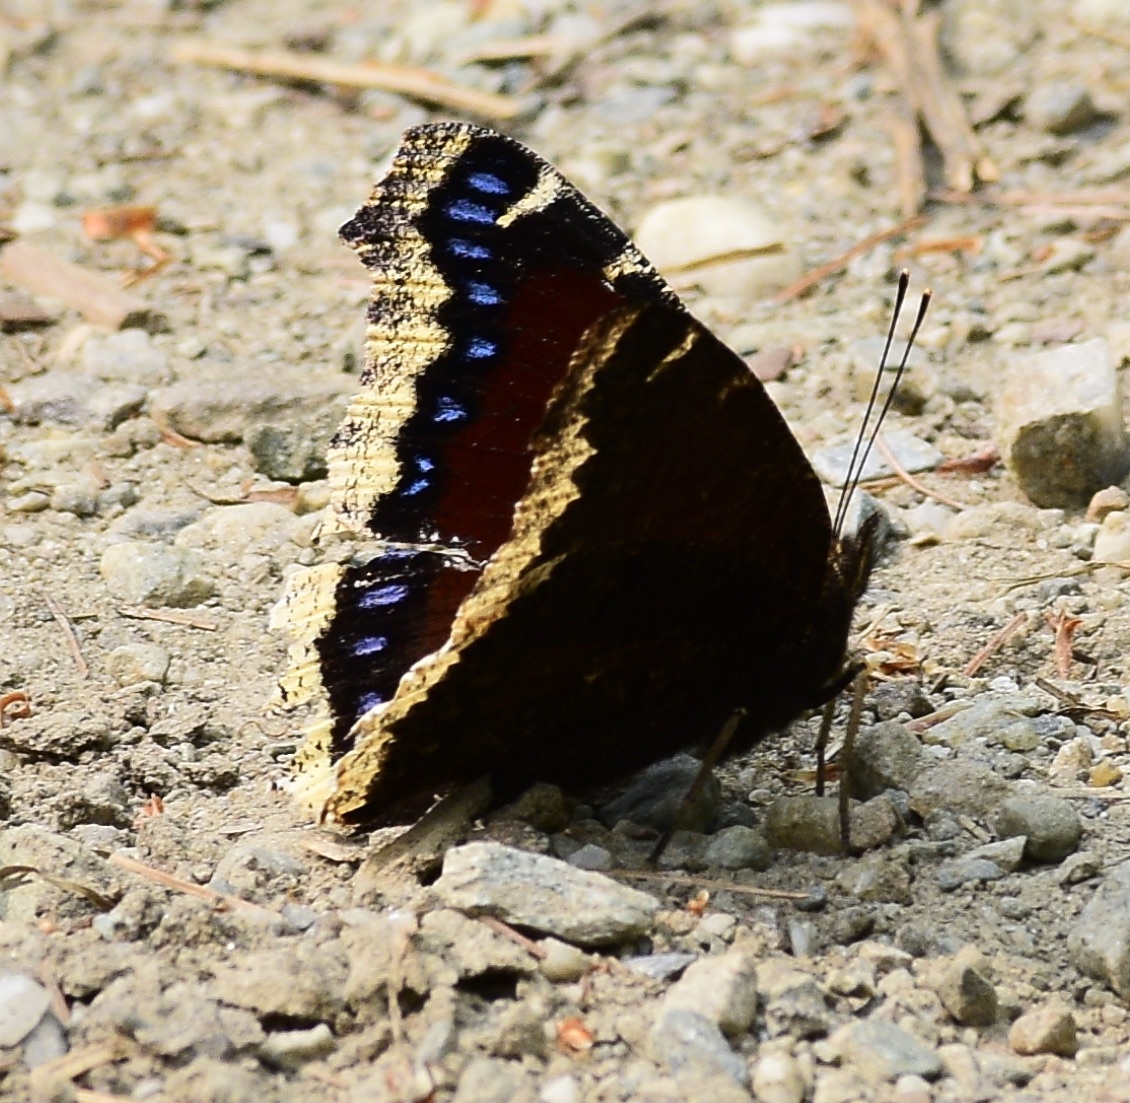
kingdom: Animalia
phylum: Arthropoda
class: Insecta
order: Lepidoptera
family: Nymphalidae
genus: Nymphalis
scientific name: Nymphalis antiopa
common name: Camberwell beauty
